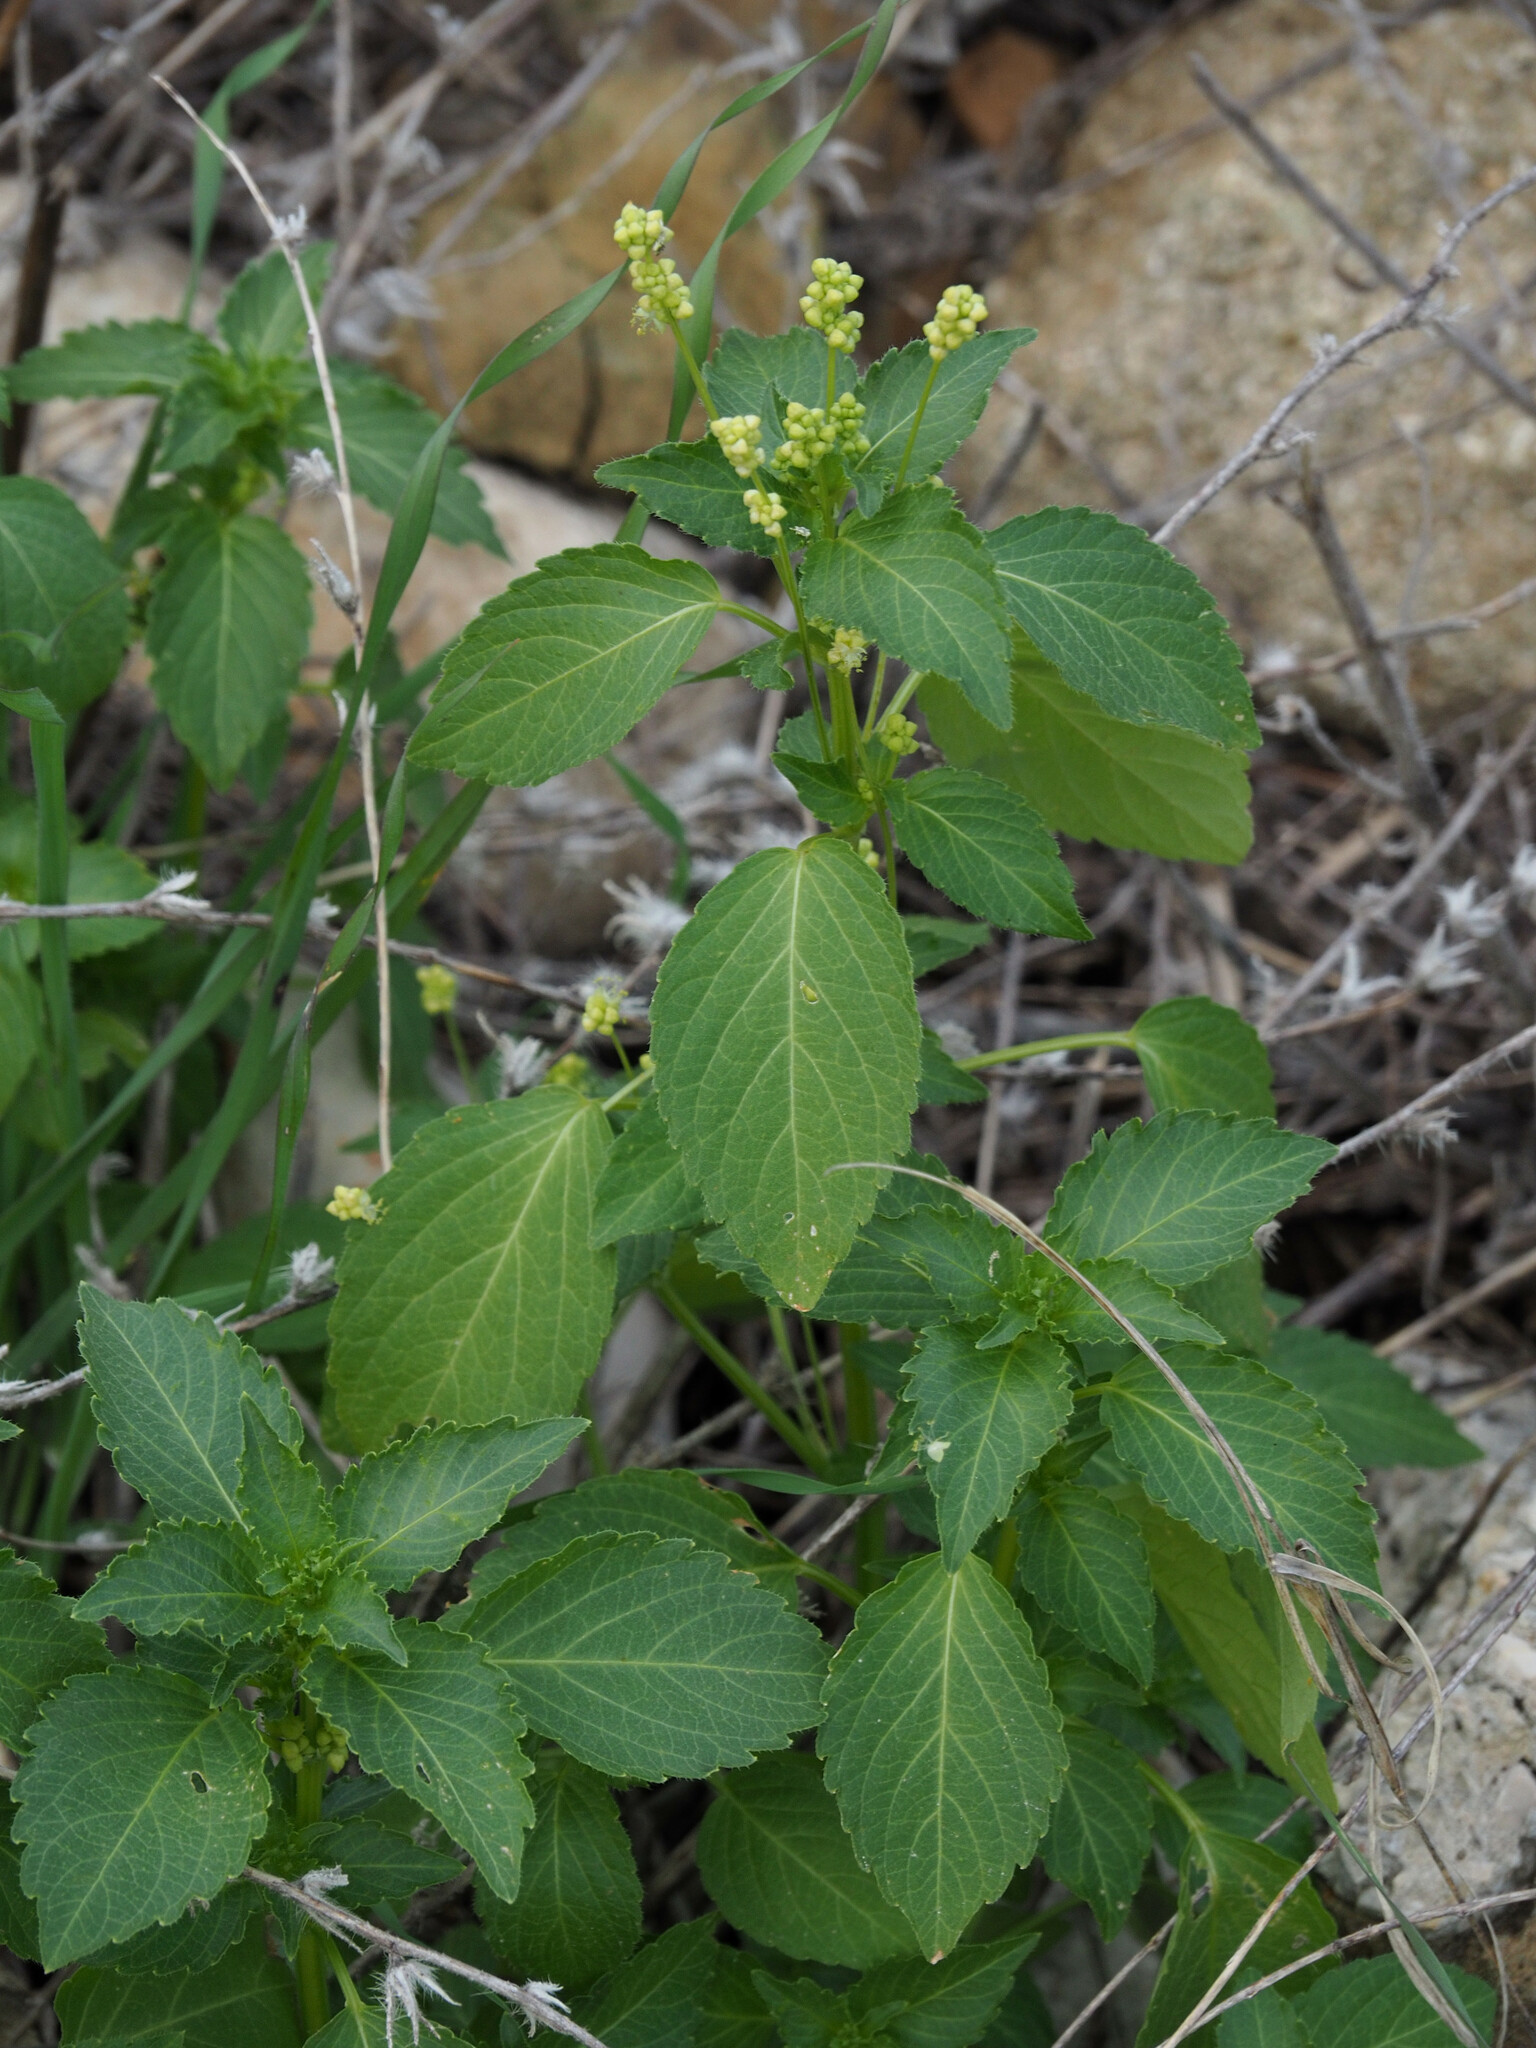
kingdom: Plantae
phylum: Tracheophyta
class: Magnoliopsida
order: Malpighiales
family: Euphorbiaceae
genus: Mercurialis
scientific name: Mercurialis annua
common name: Annual mercury
